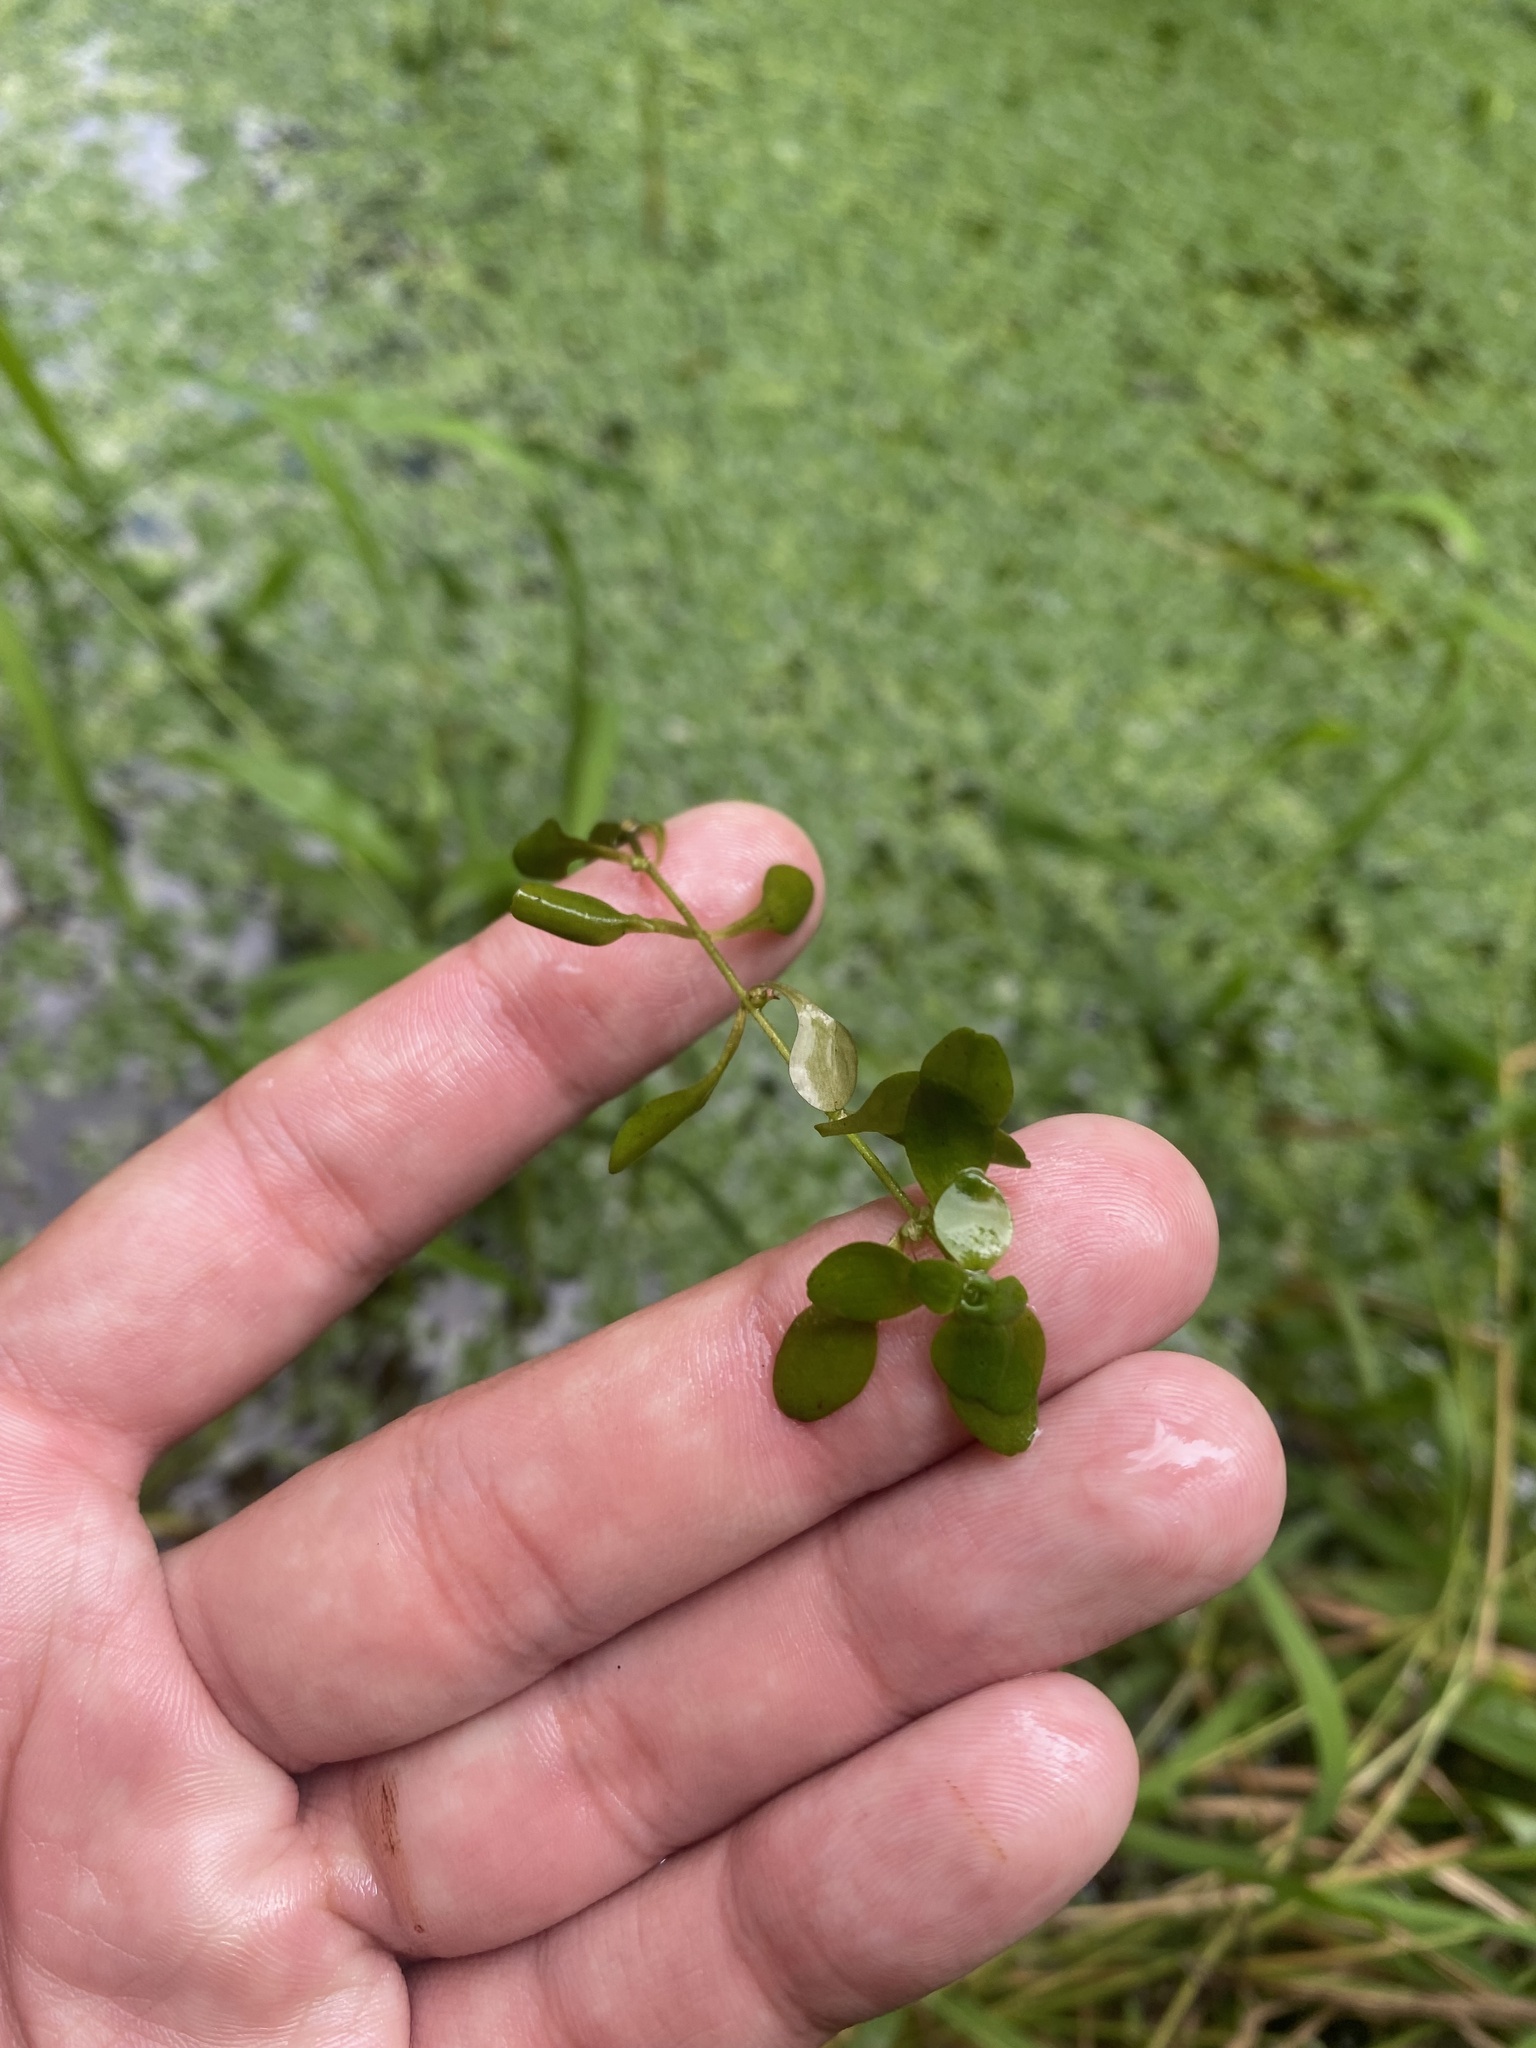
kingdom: Plantae
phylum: Tracheophyta
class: Magnoliopsida
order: Lamiales
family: Plantaginaceae
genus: Callitriche
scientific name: Callitriche cophocarpa
